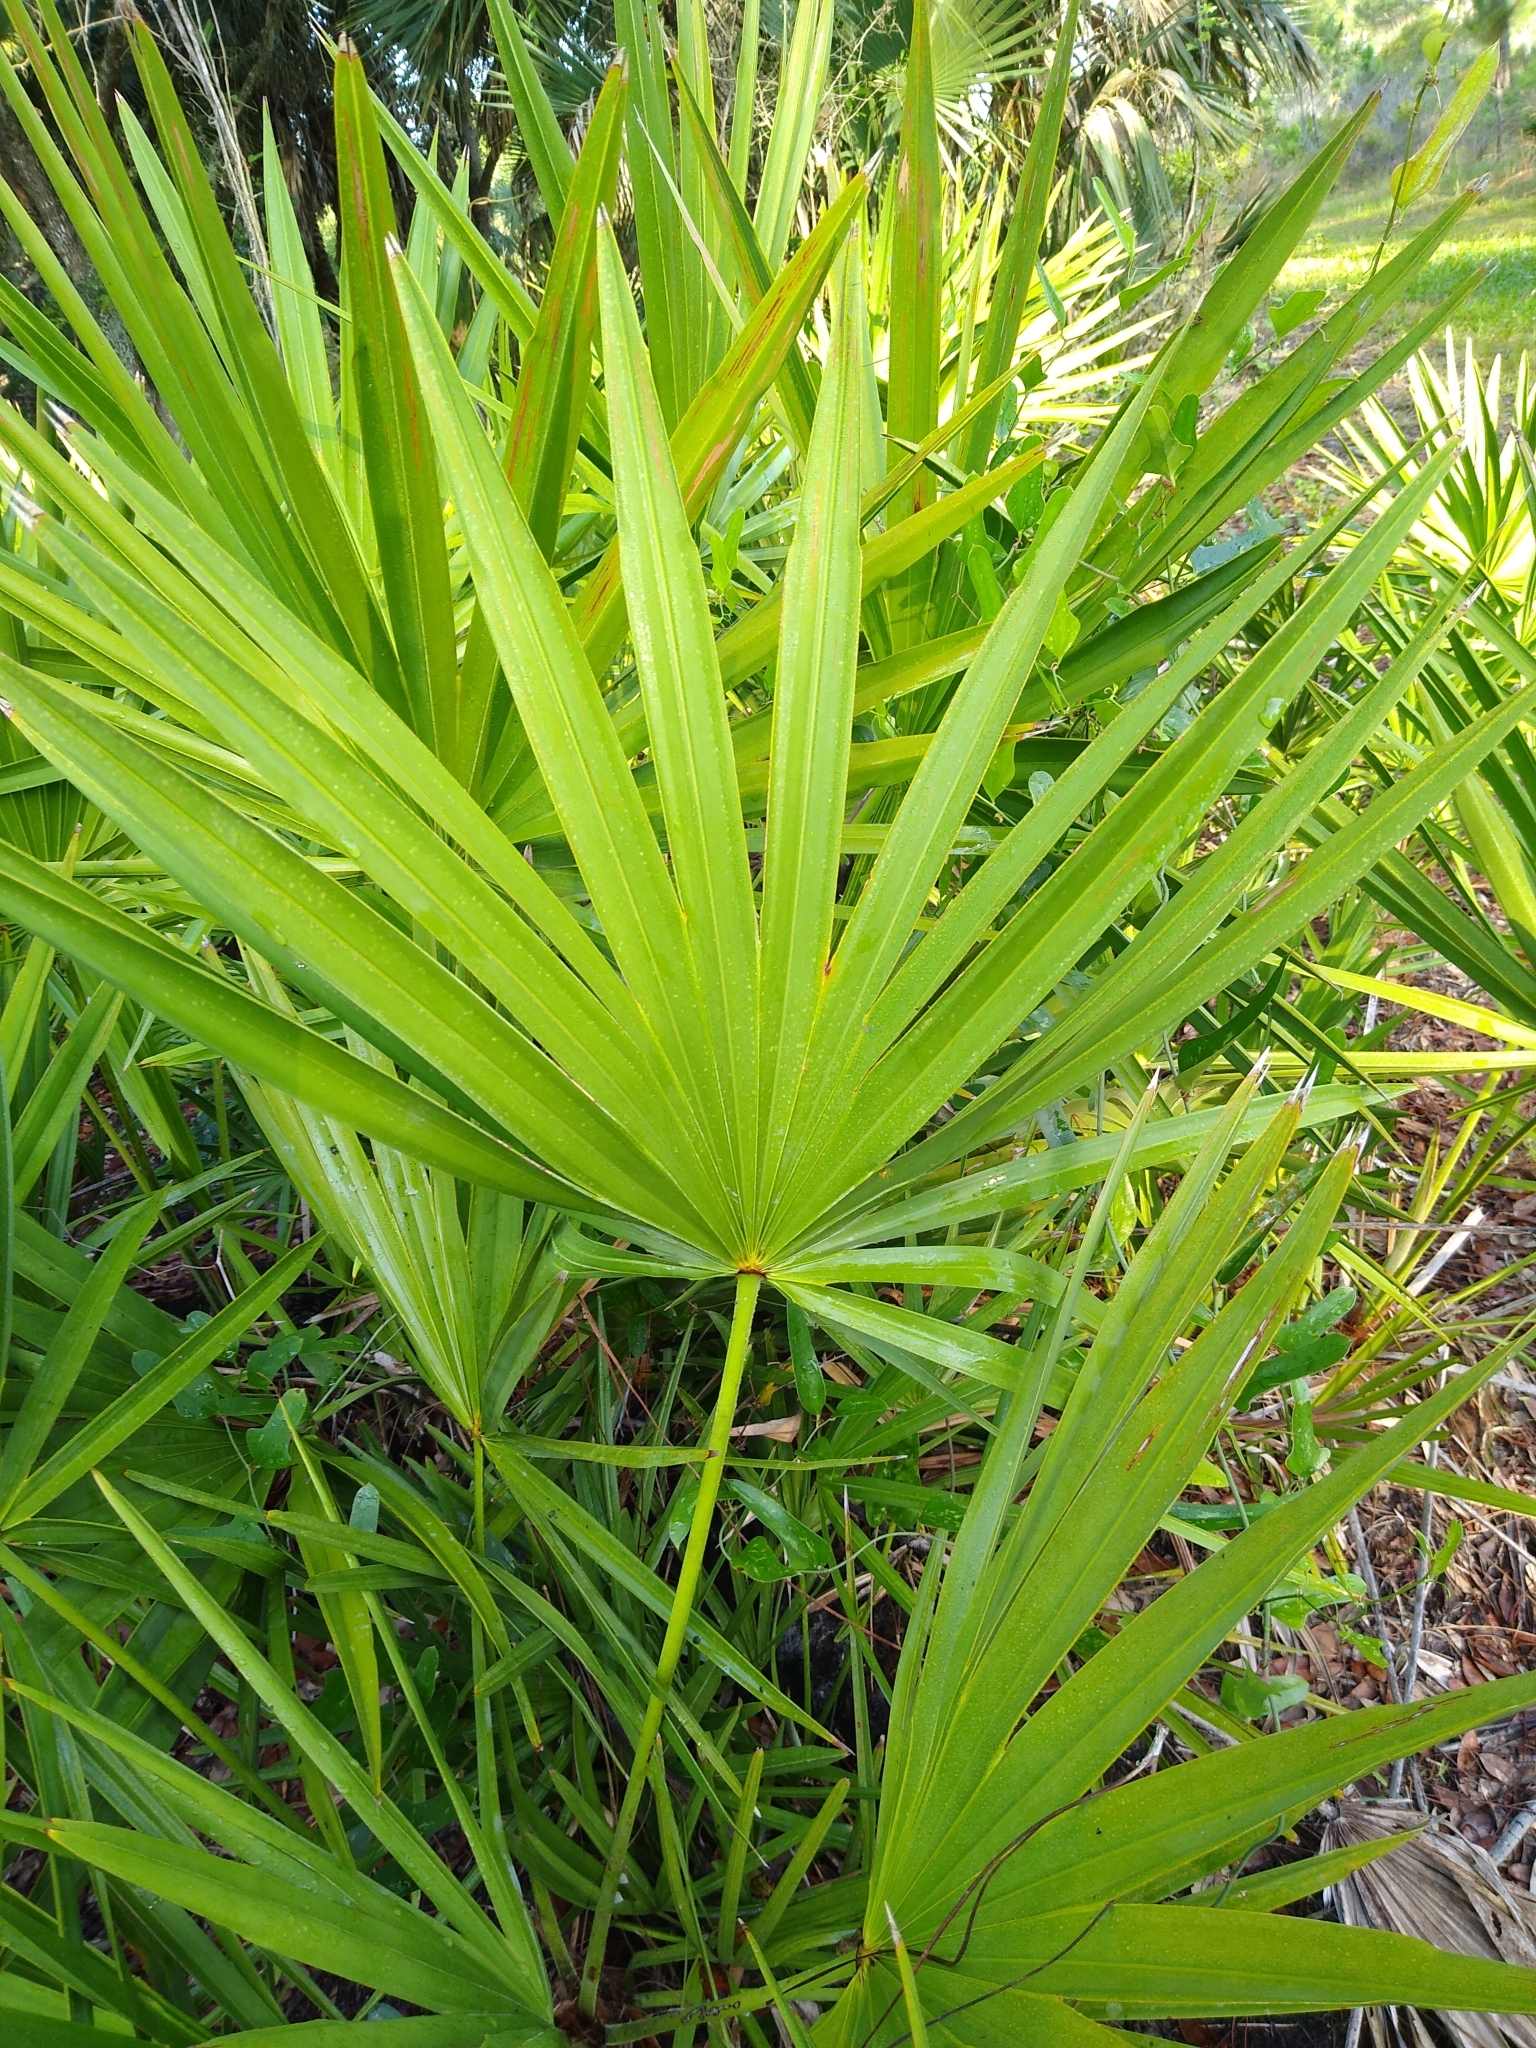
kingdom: Plantae
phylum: Tracheophyta
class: Liliopsida
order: Arecales
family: Arecaceae
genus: Serenoa
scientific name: Serenoa repens
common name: Saw-palmetto
